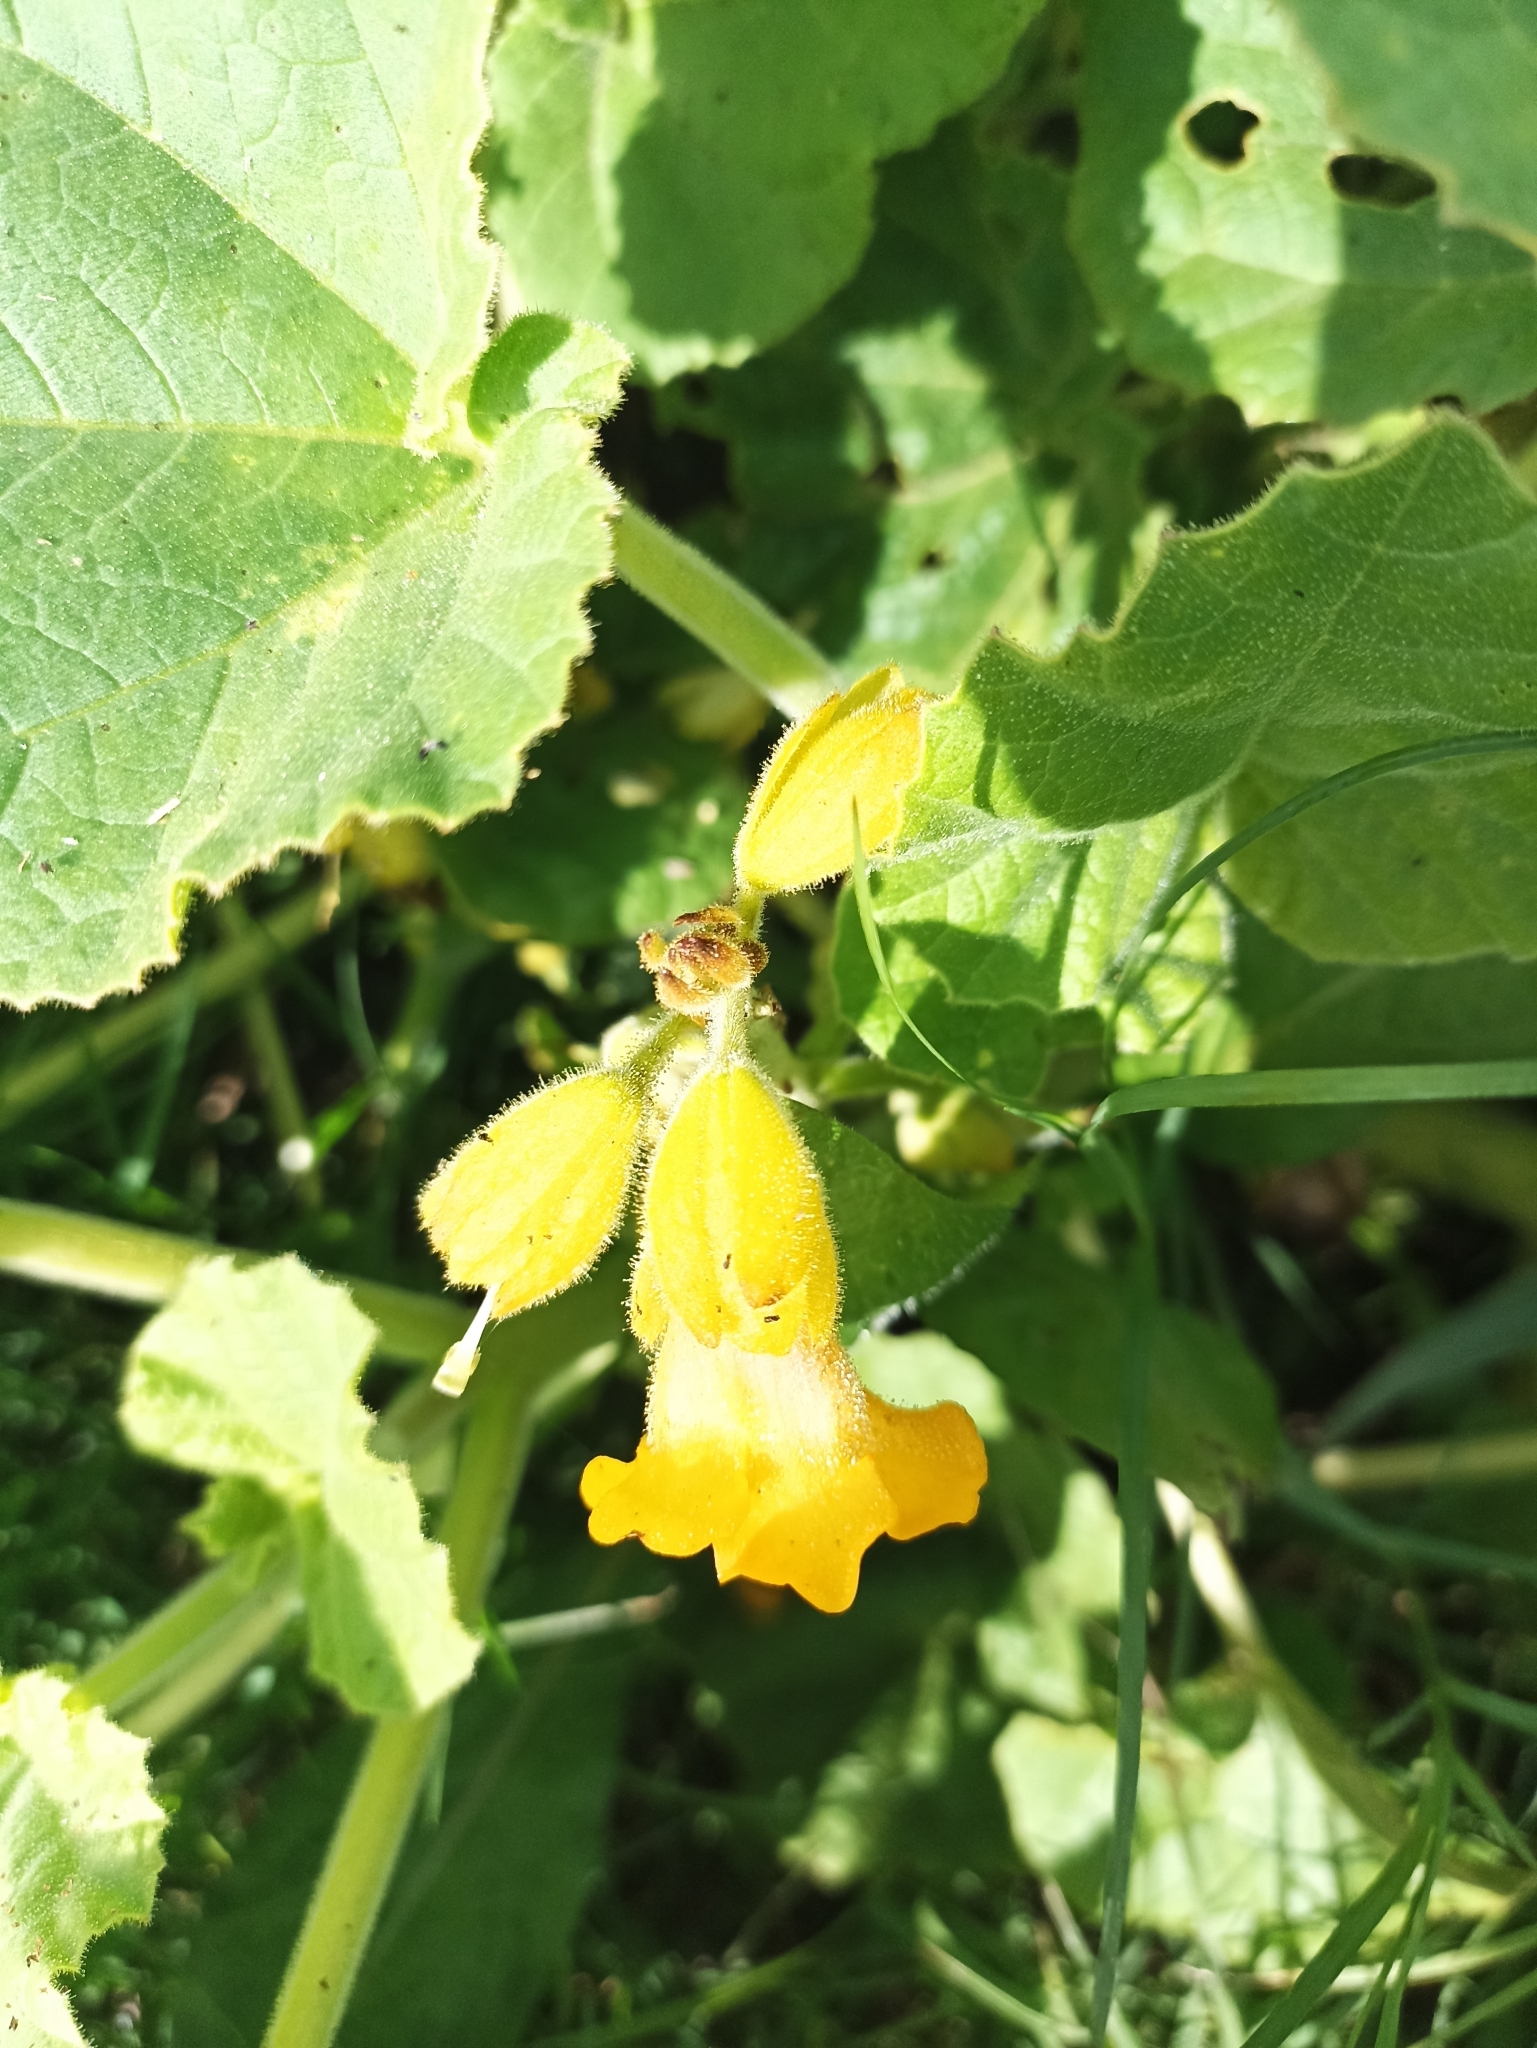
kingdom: Plantae
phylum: Tracheophyta
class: Magnoliopsida
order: Lamiales
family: Martyniaceae
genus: Ibicella
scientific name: Ibicella lutea
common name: Yellow unicorn-plant
